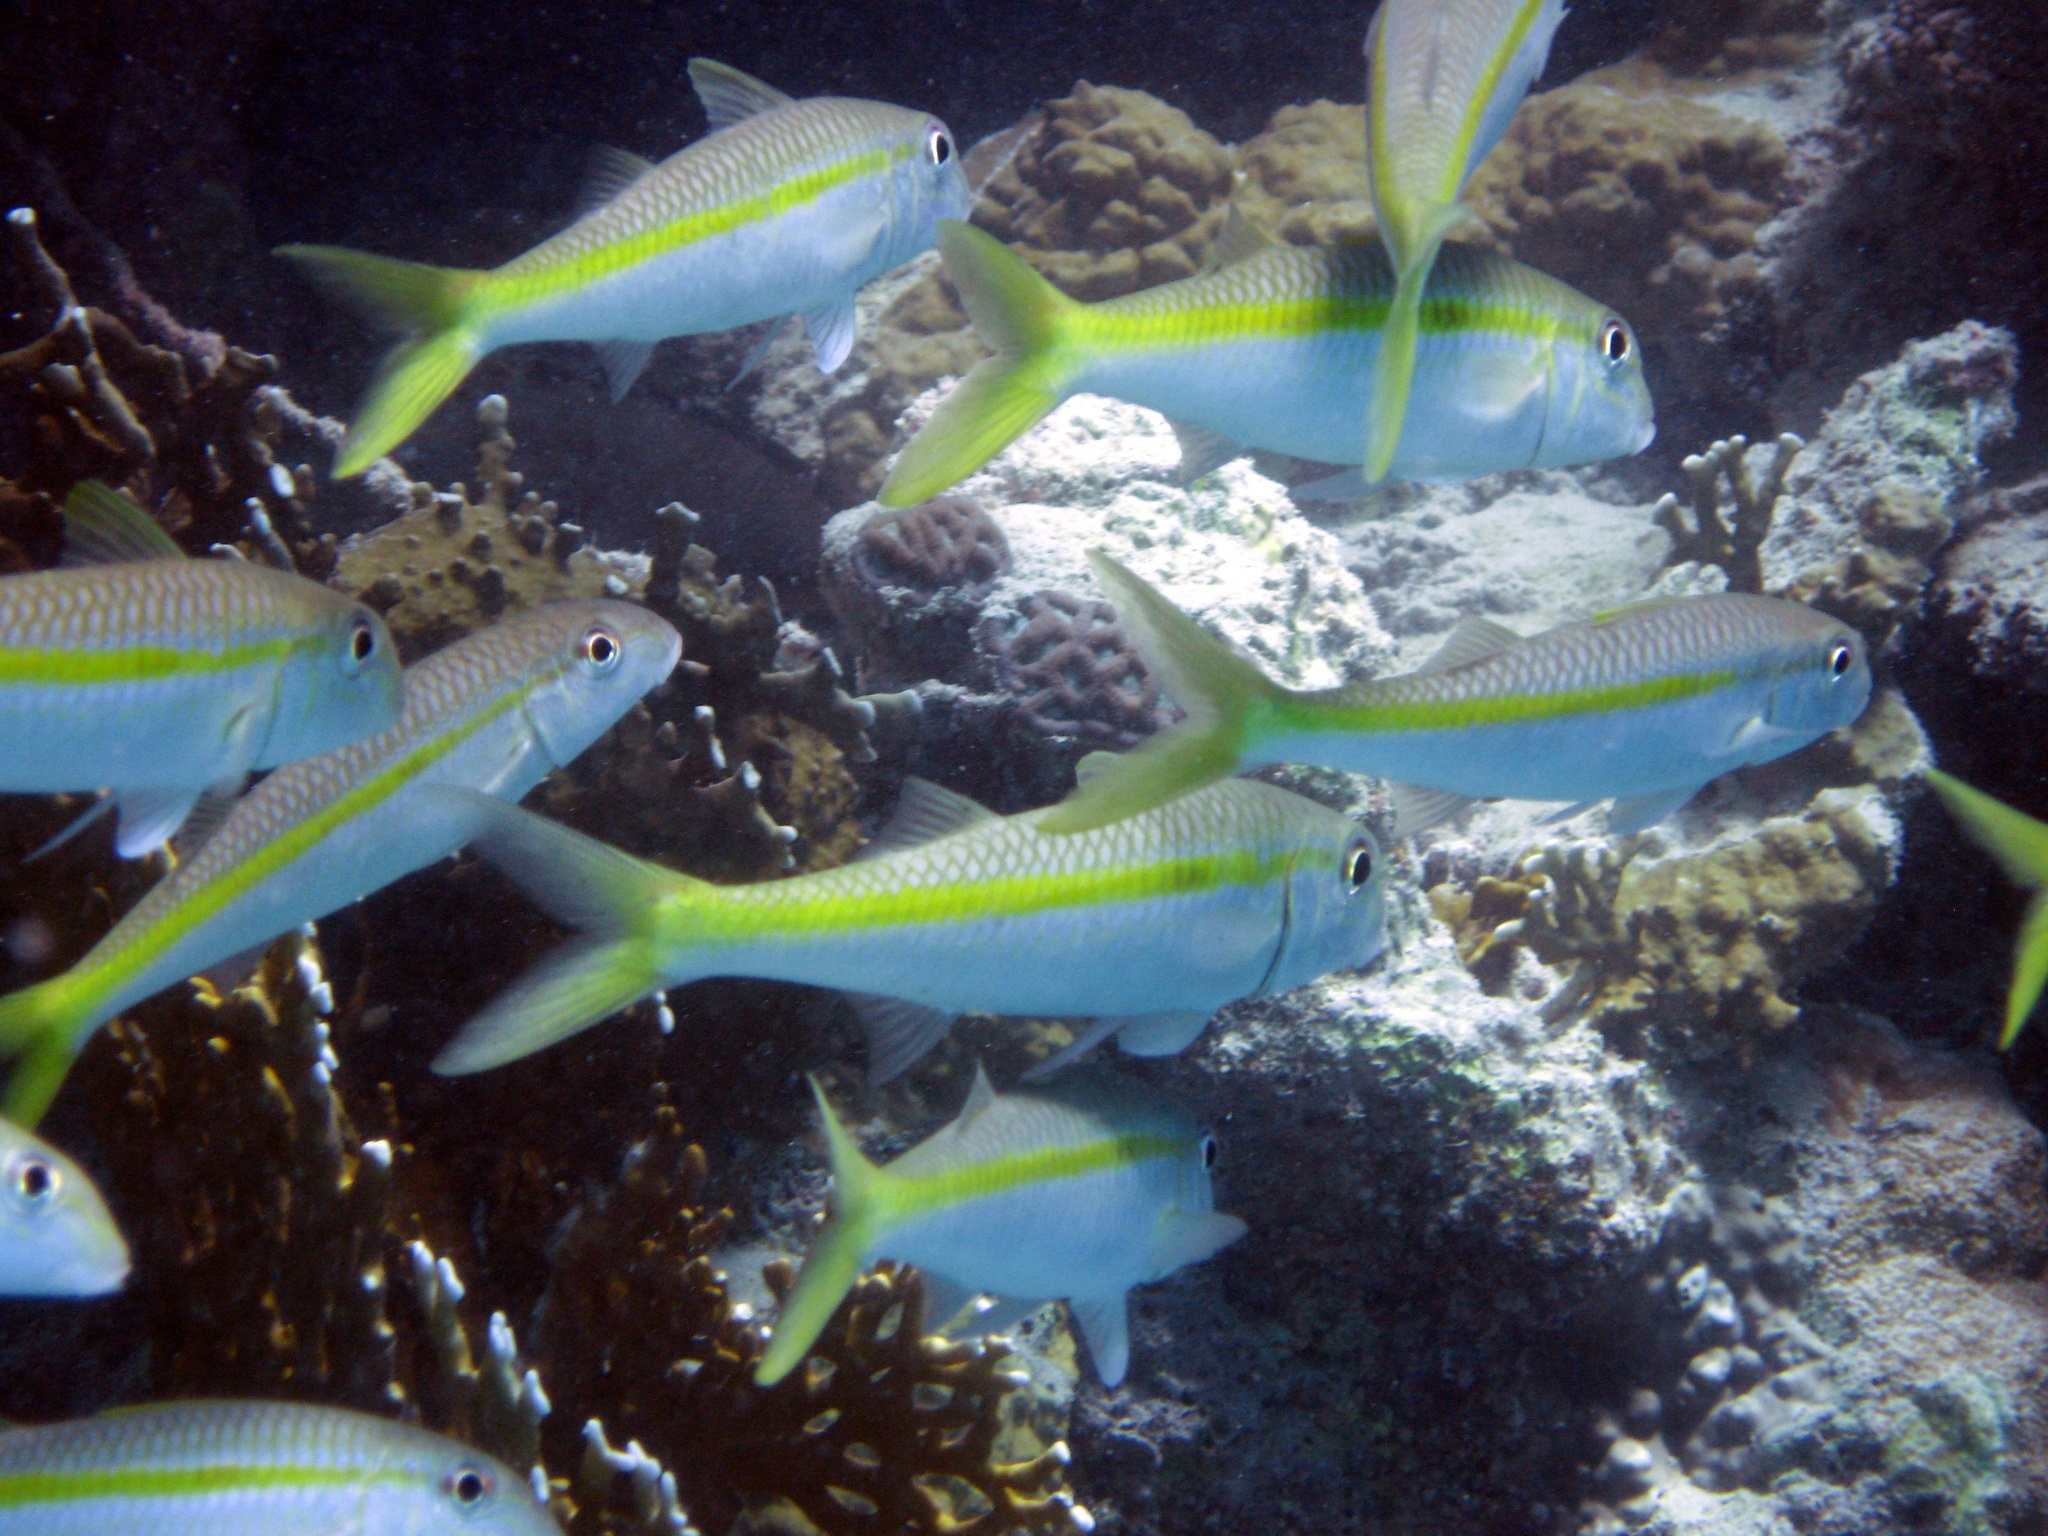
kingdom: Animalia
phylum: Chordata
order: Perciformes
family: Mullidae
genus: Mulloidichthys
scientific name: Mulloidichthys flavolineatus
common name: Yellowstripe goatfish
